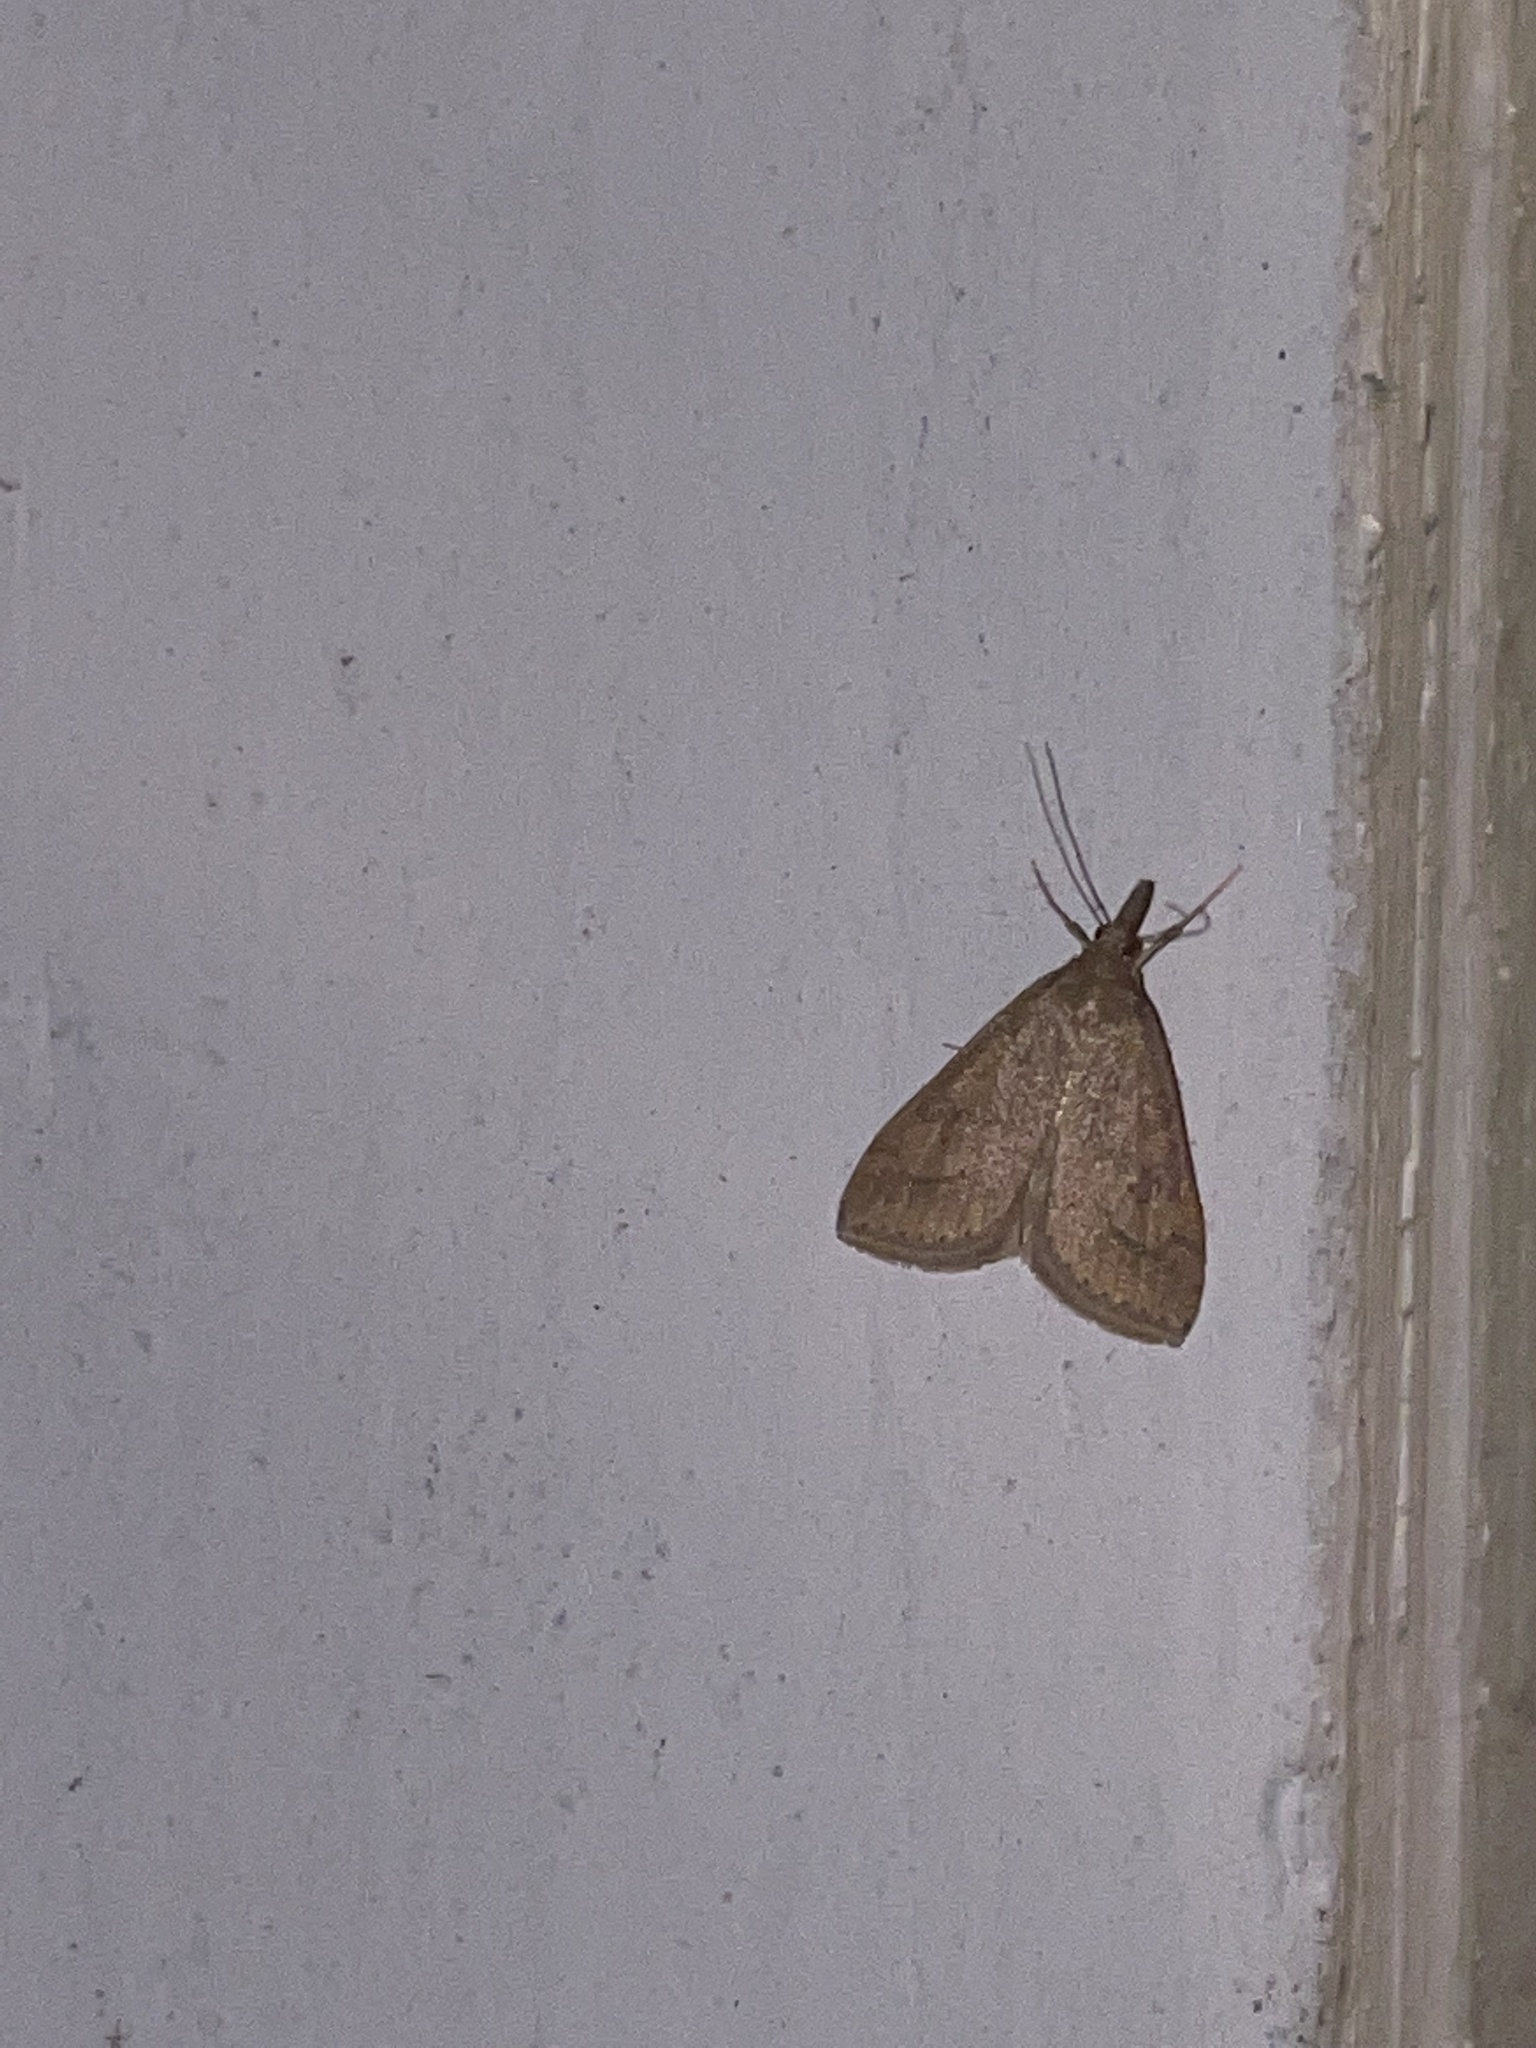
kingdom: Animalia
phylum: Arthropoda
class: Insecta
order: Lepidoptera
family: Crambidae
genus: Udea
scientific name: Udea rubigalis
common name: Celery leaftier moth
